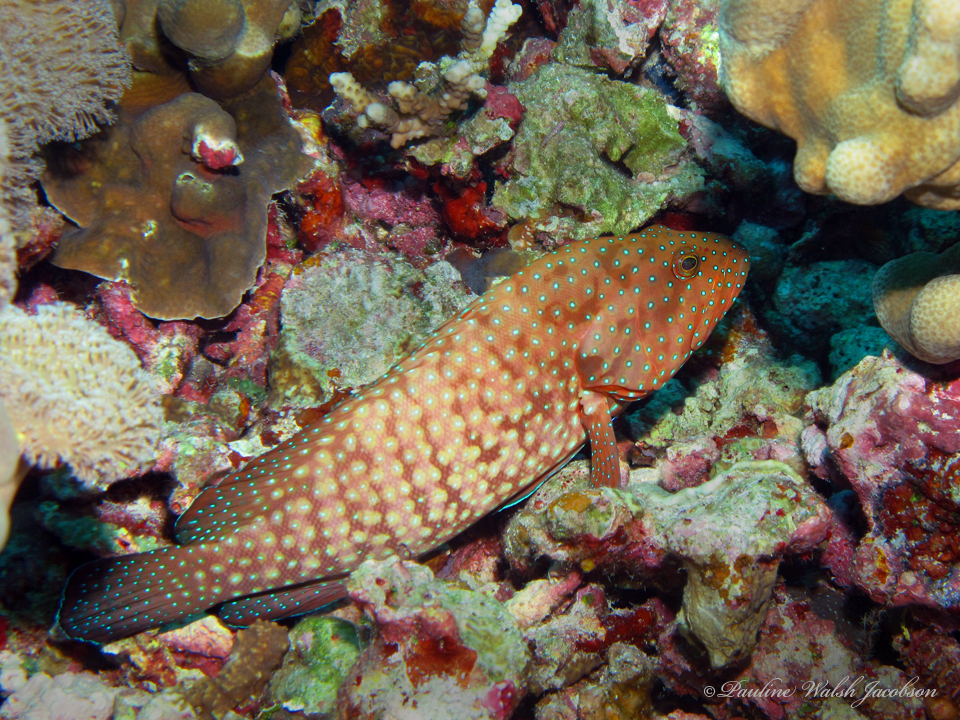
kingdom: Animalia
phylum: Chordata
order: Perciformes
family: Serranidae
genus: Cephalopholis
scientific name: Cephalopholis cyanostigma
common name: Bluespotted hind
